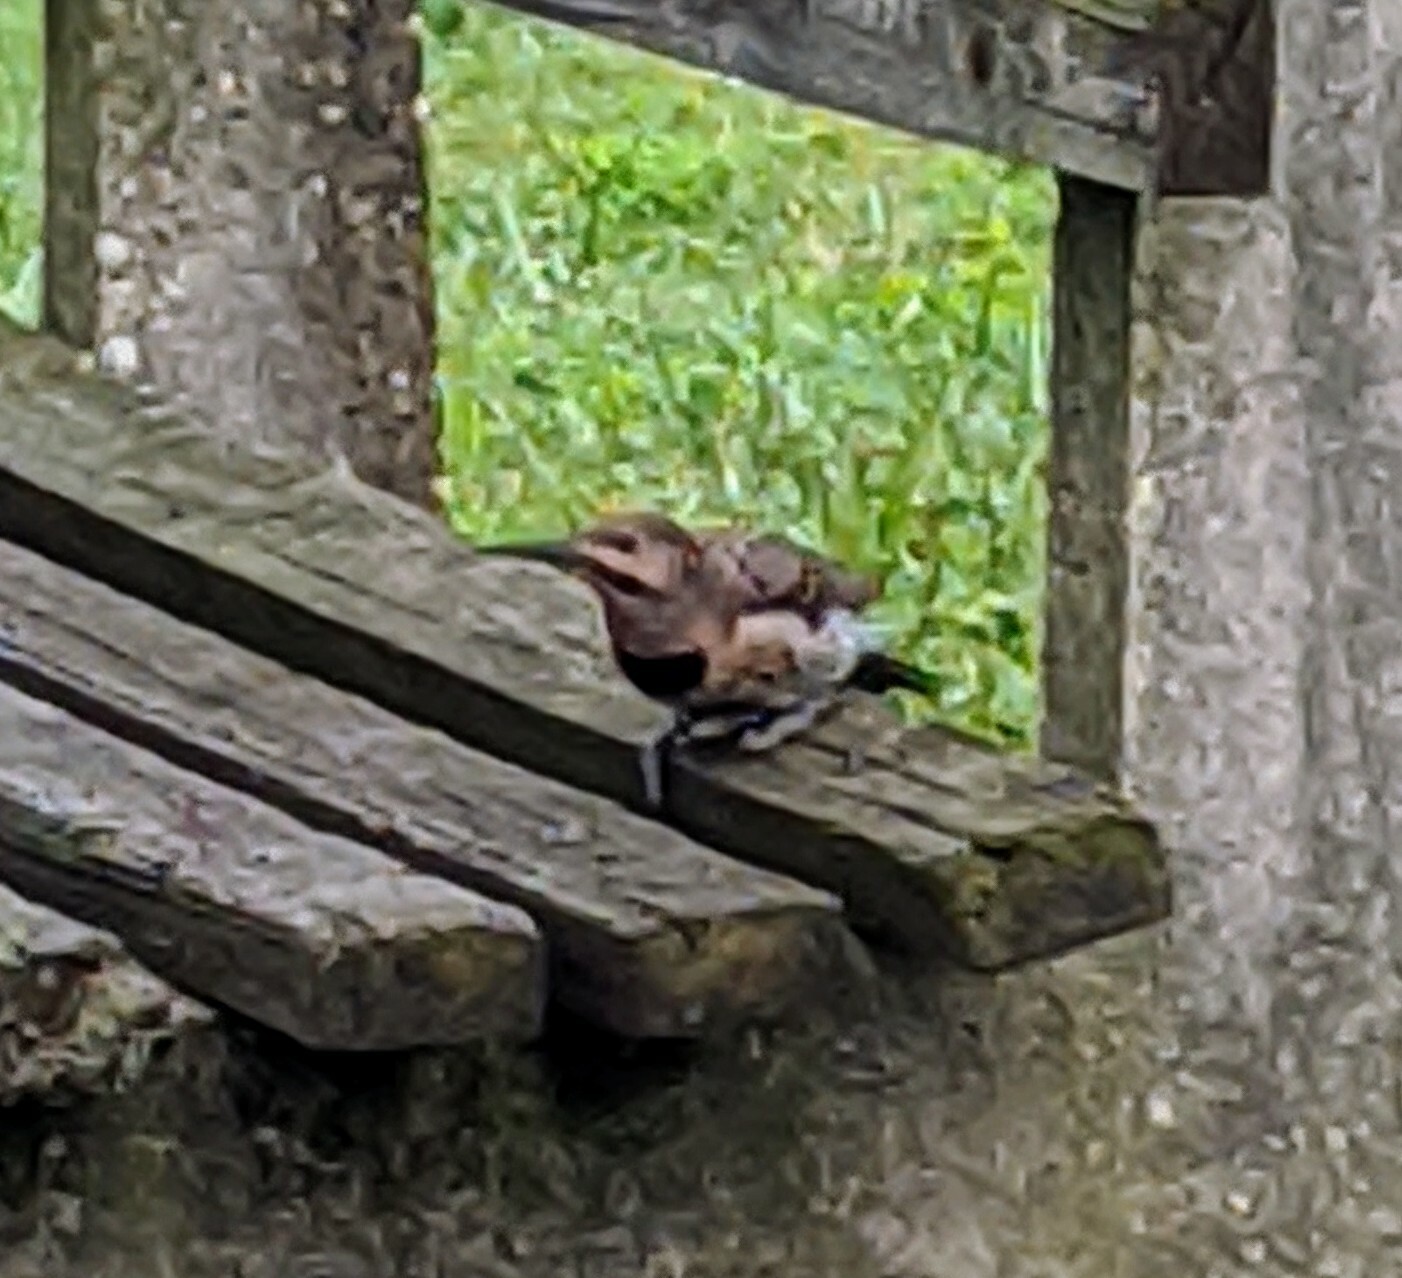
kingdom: Animalia
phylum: Chordata
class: Aves
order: Piciformes
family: Picidae
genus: Colaptes
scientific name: Colaptes auratus
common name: Northern flicker
